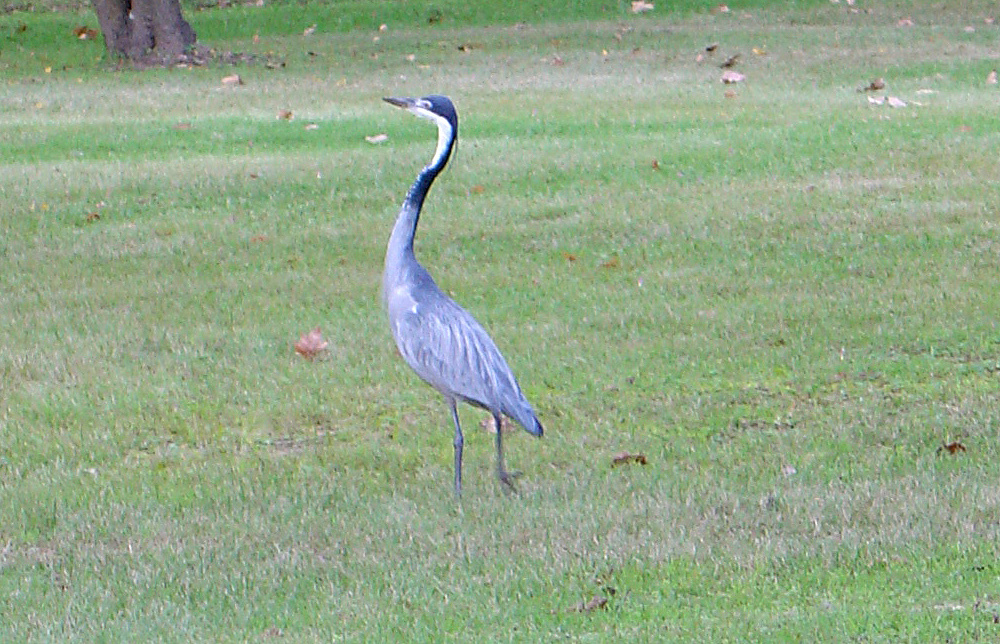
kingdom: Animalia
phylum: Chordata
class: Aves
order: Pelecaniformes
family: Ardeidae
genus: Ardea
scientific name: Ardea melanocephala
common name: Black-headed heron
